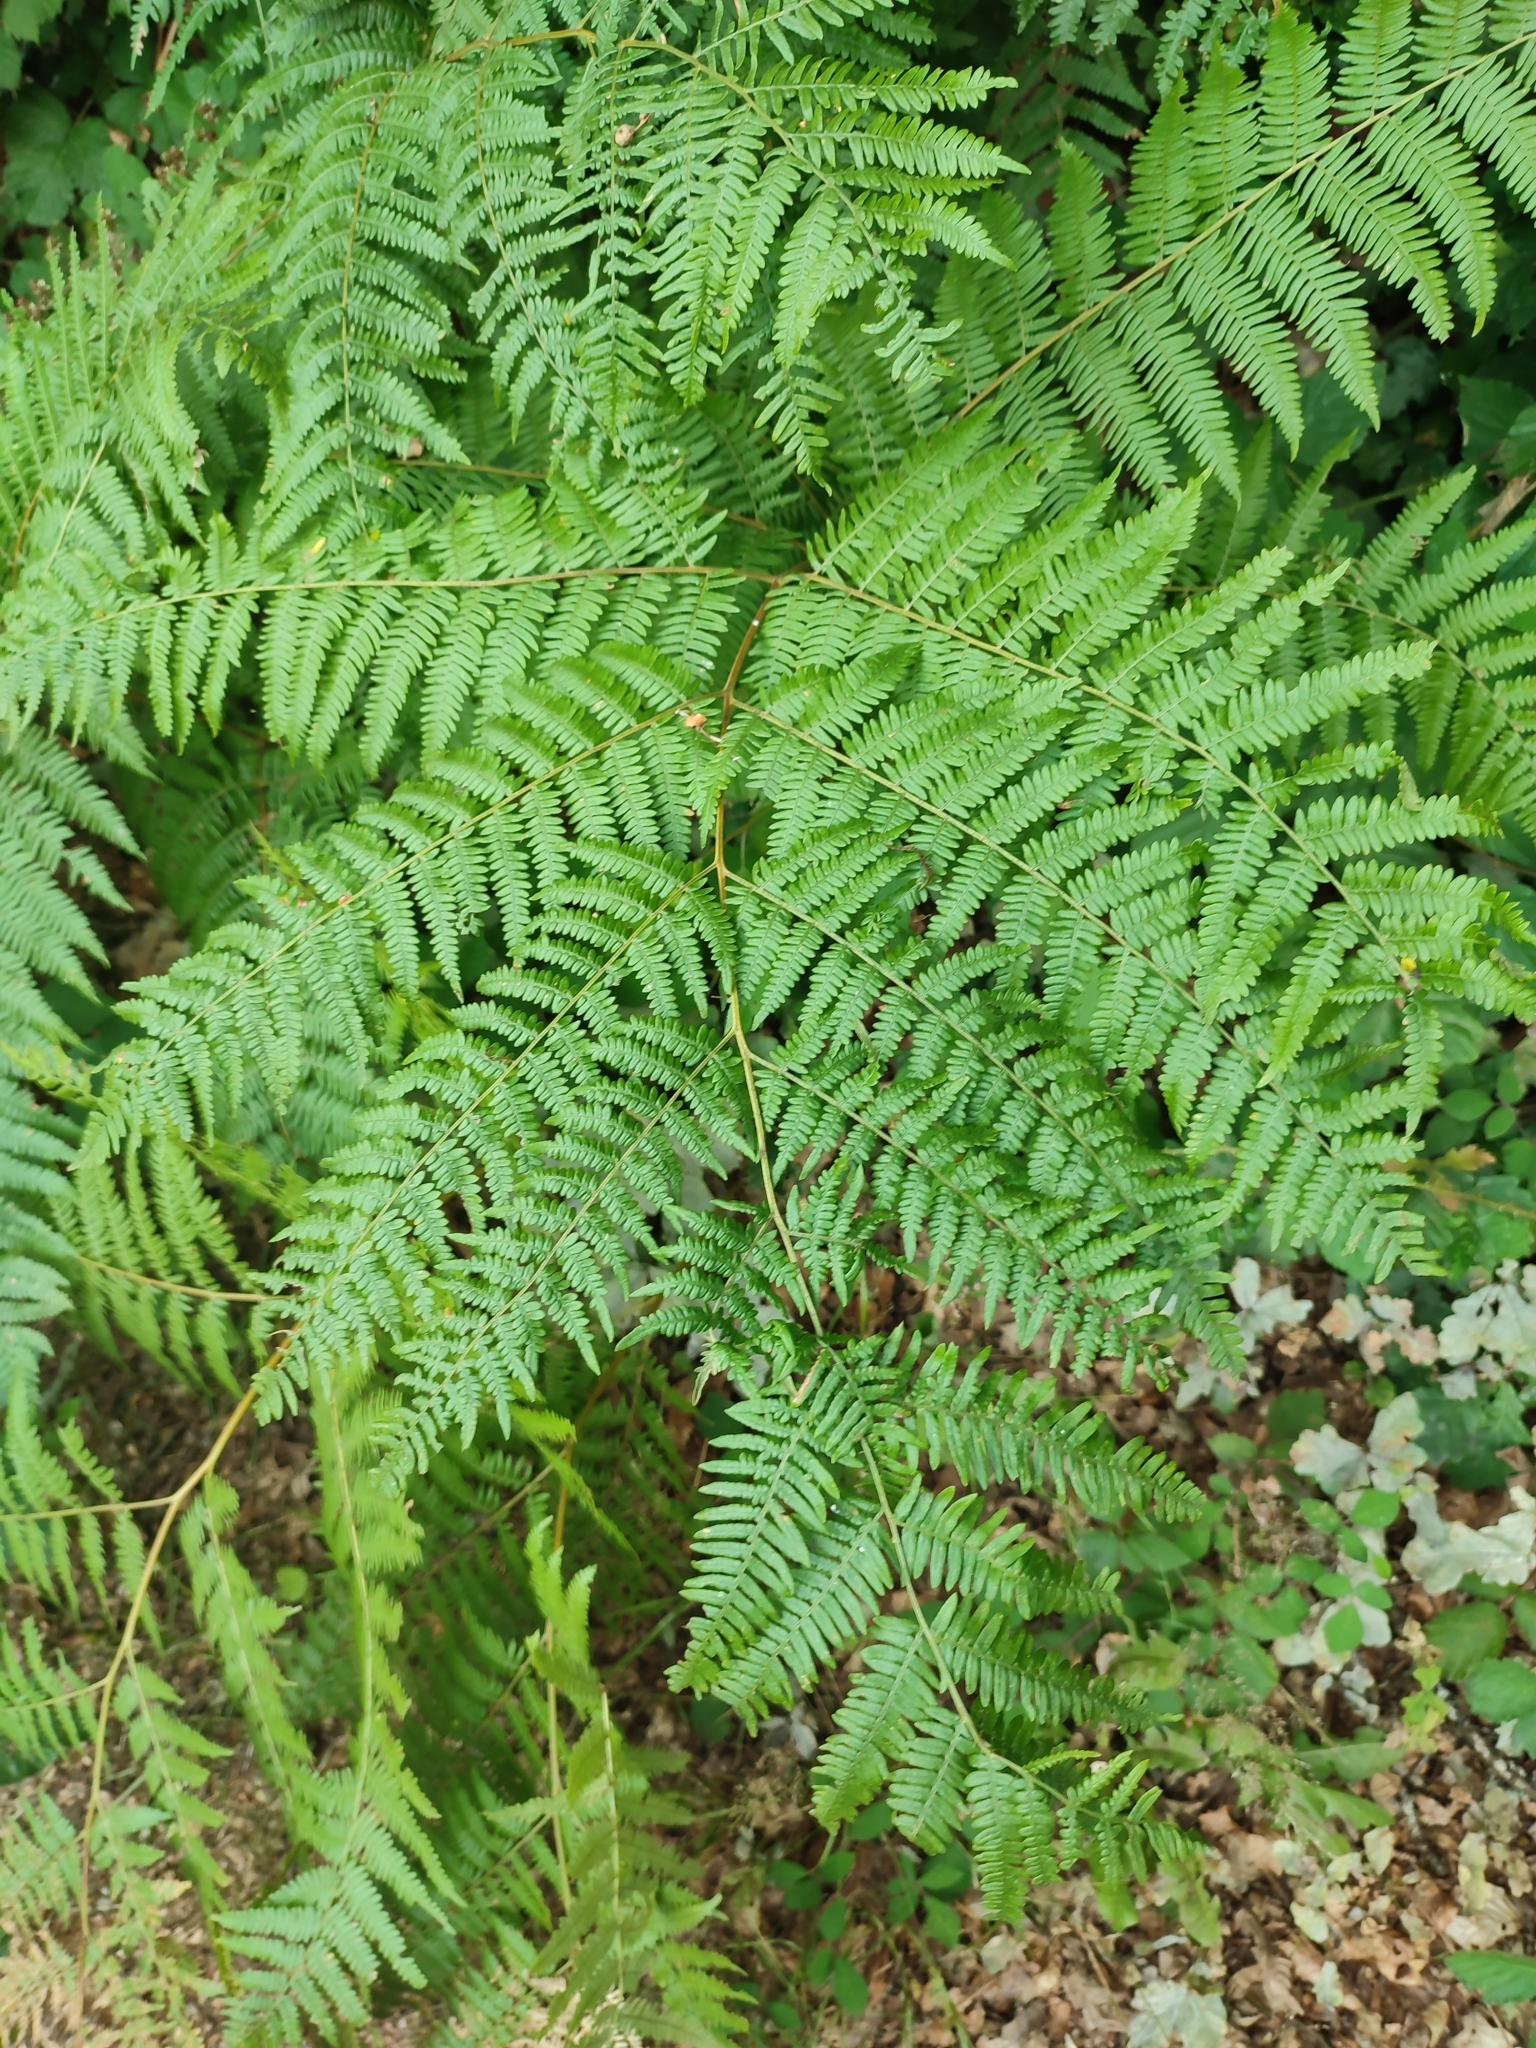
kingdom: Plantae
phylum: Tracheophyta
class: Polypodiopsida
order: Polypodiales
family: Dennstaedtiaceae
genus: Pteridium
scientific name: Pteridium aquilinum
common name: Bracken
